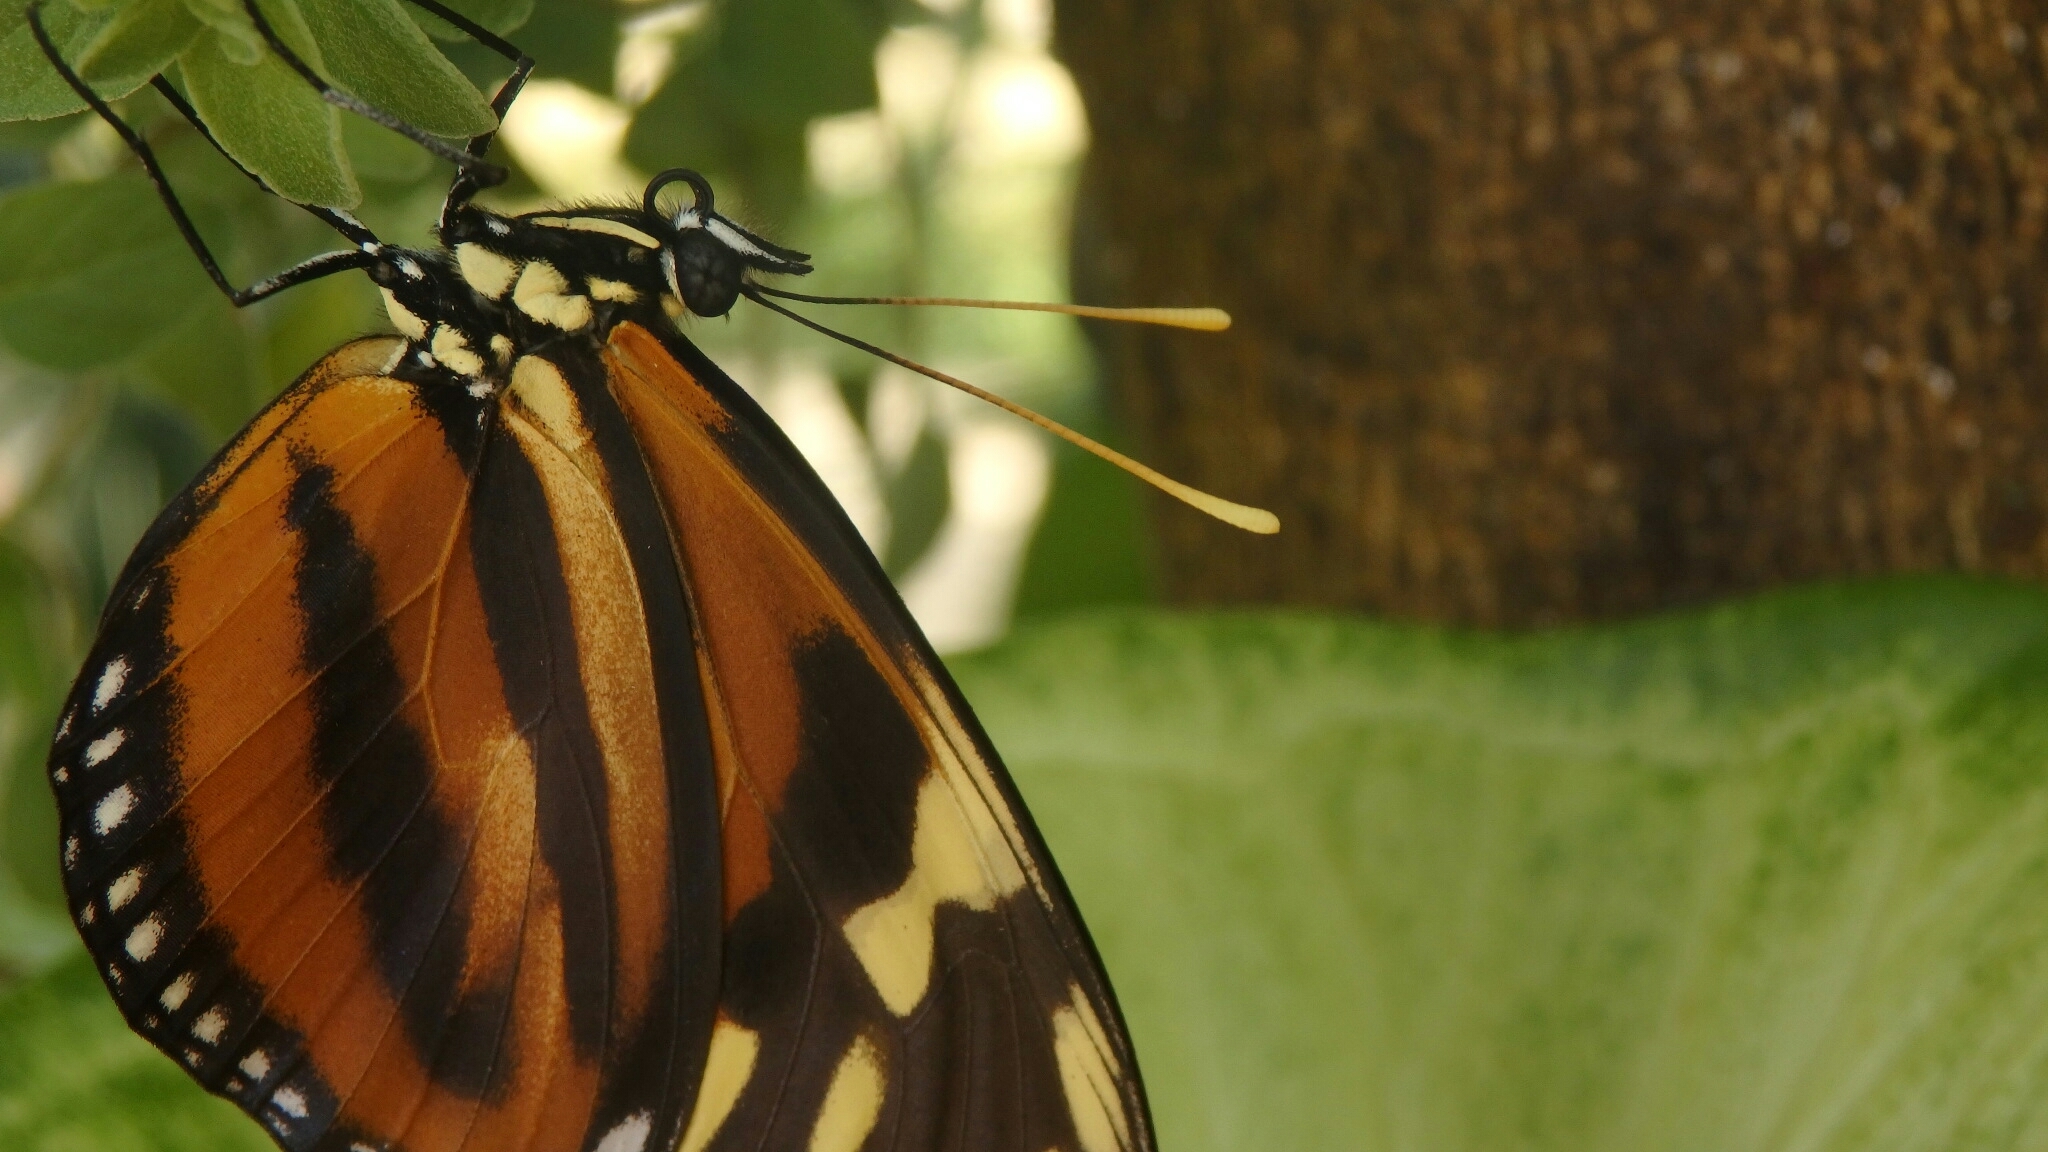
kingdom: Animalia
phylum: Arthropoda
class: Insecta
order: Lepidoptera
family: Nymphalidae
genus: Lycorea
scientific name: Lycorea eva
